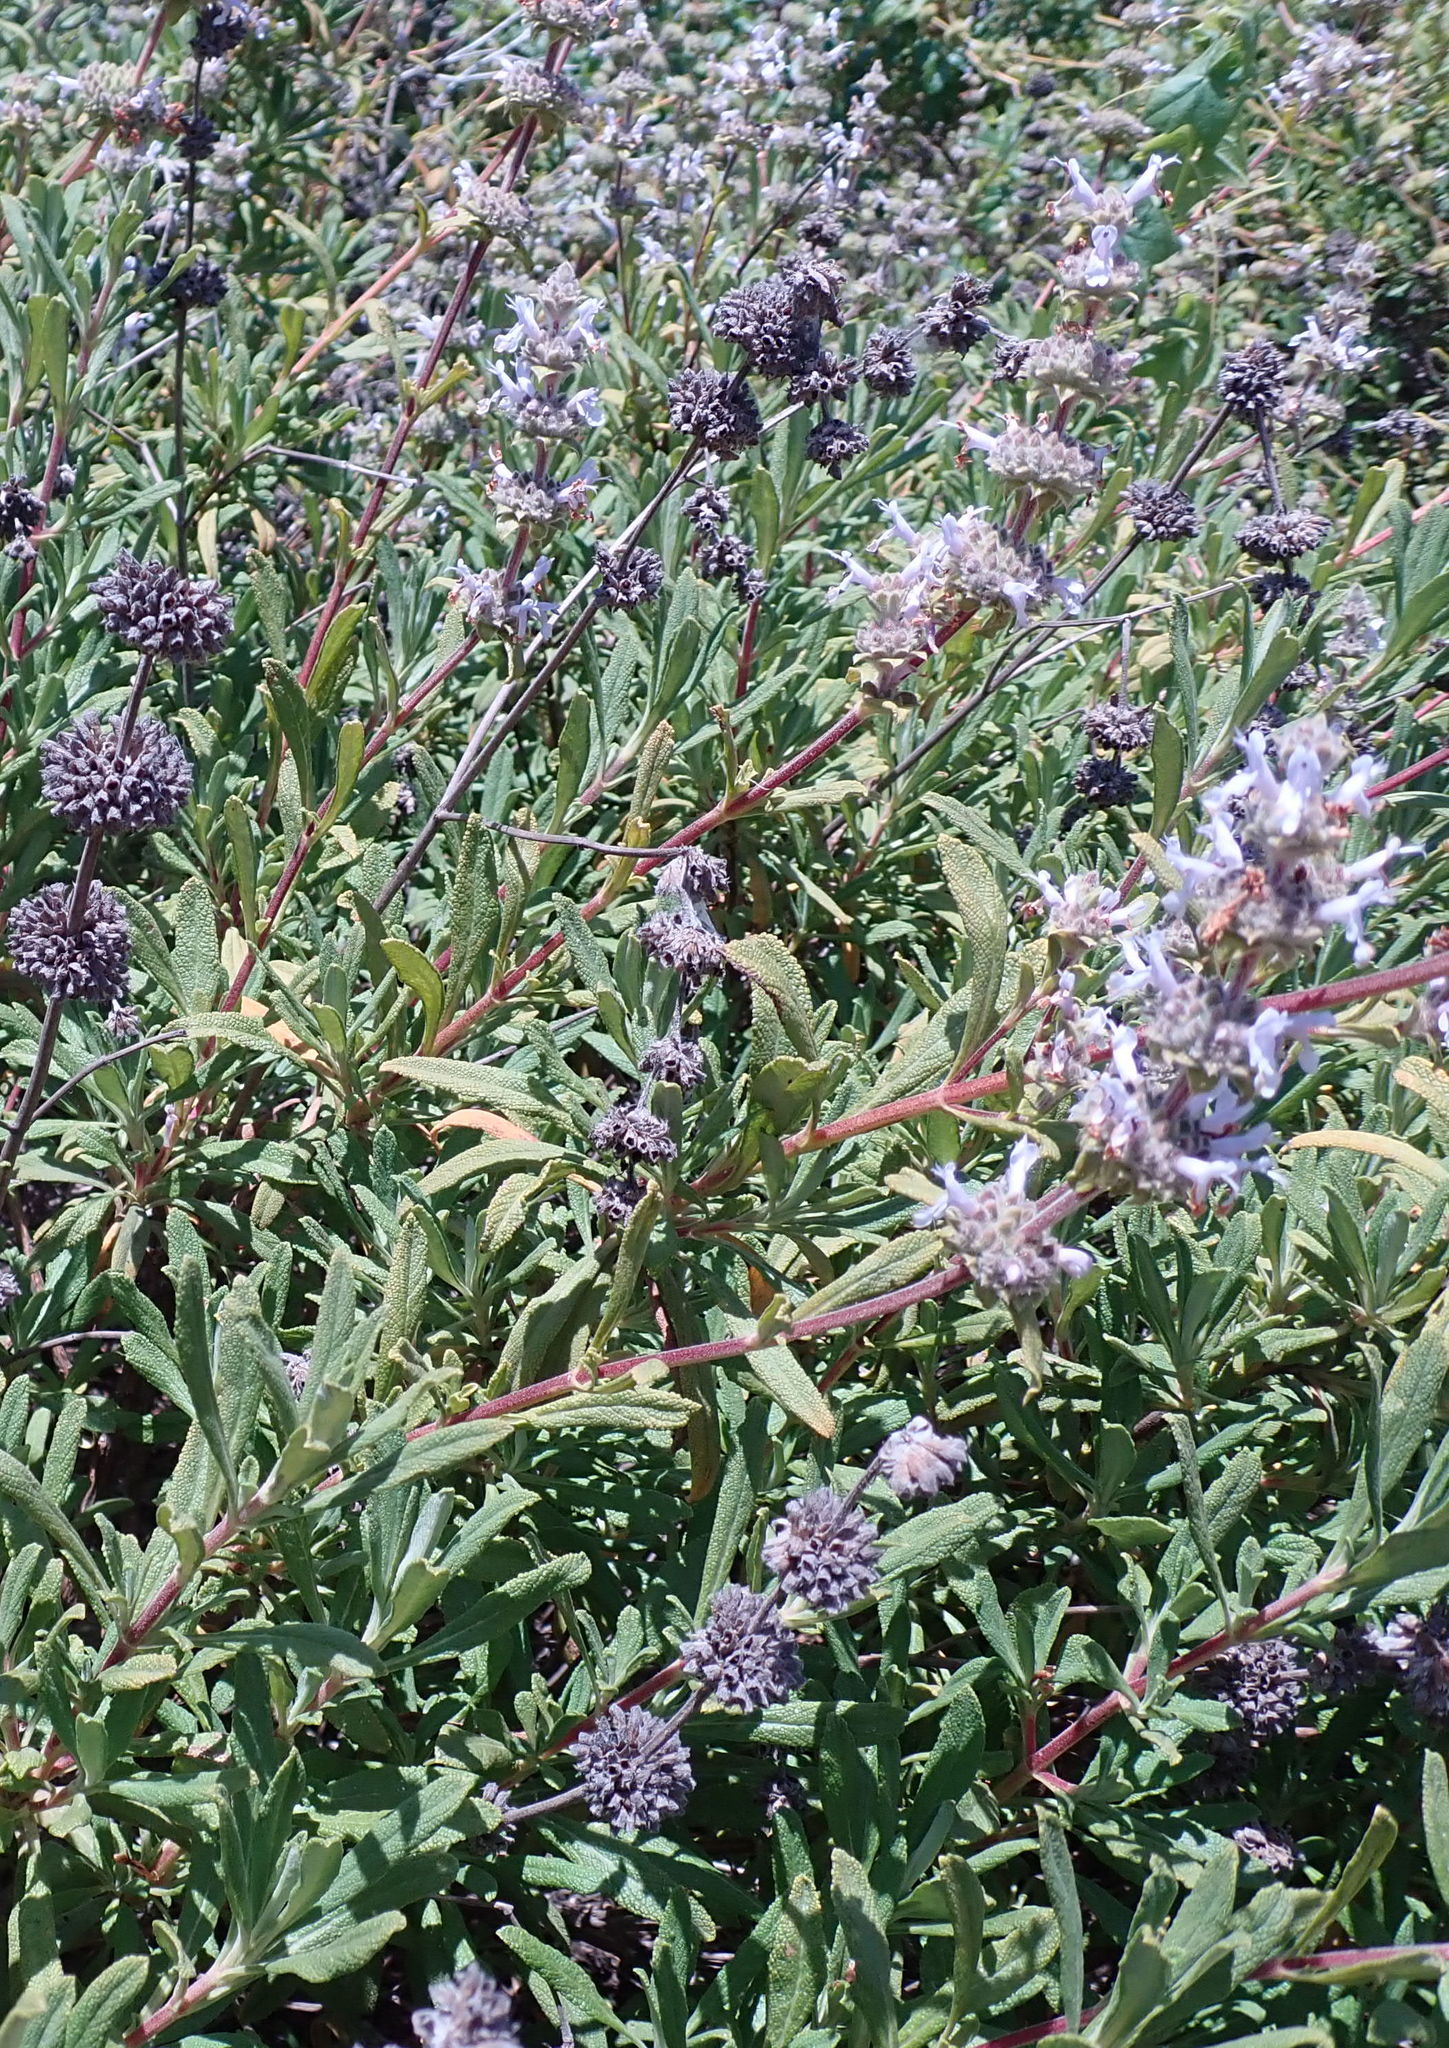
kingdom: Plantae
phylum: Tracheophyta
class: Magnoliopsida
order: Lamiales
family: Lamiaceae
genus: Salvia
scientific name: Salvia mellifera
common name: Black sage
